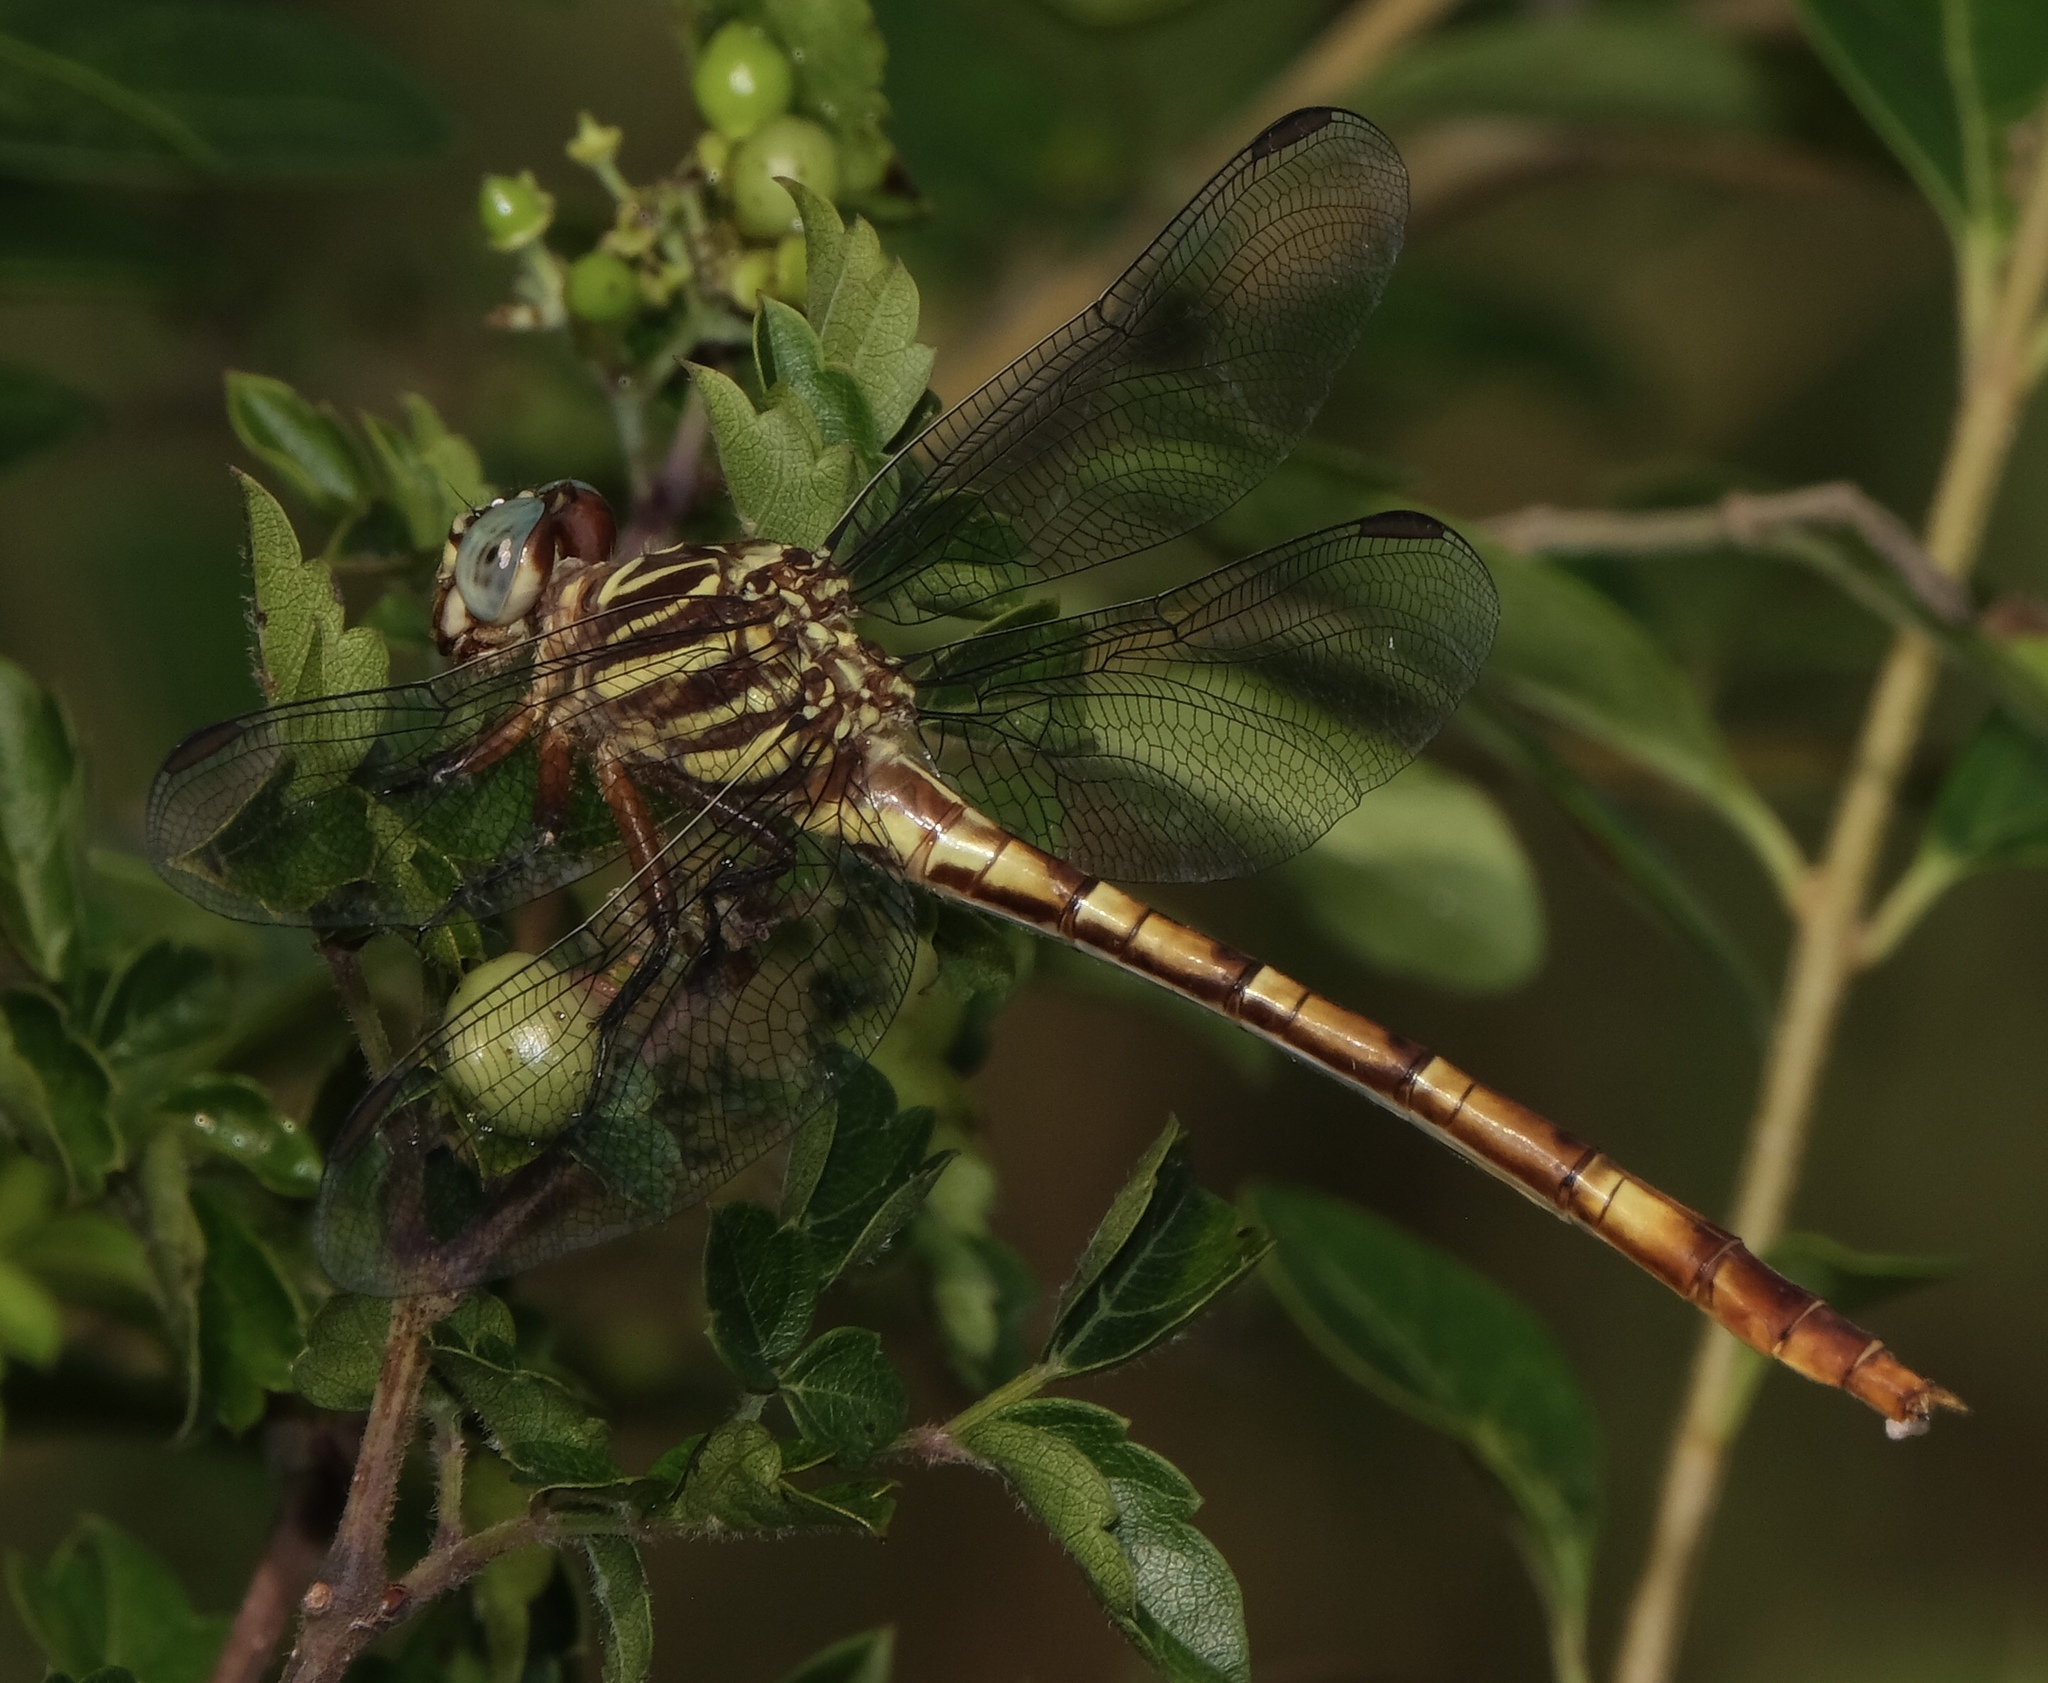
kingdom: Animalia
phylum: Arthropoda
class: Insecta
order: Odonata
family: Gomphidae
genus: Aphylla
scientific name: Aphylla angustifolia
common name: Broad-striped forceptail
